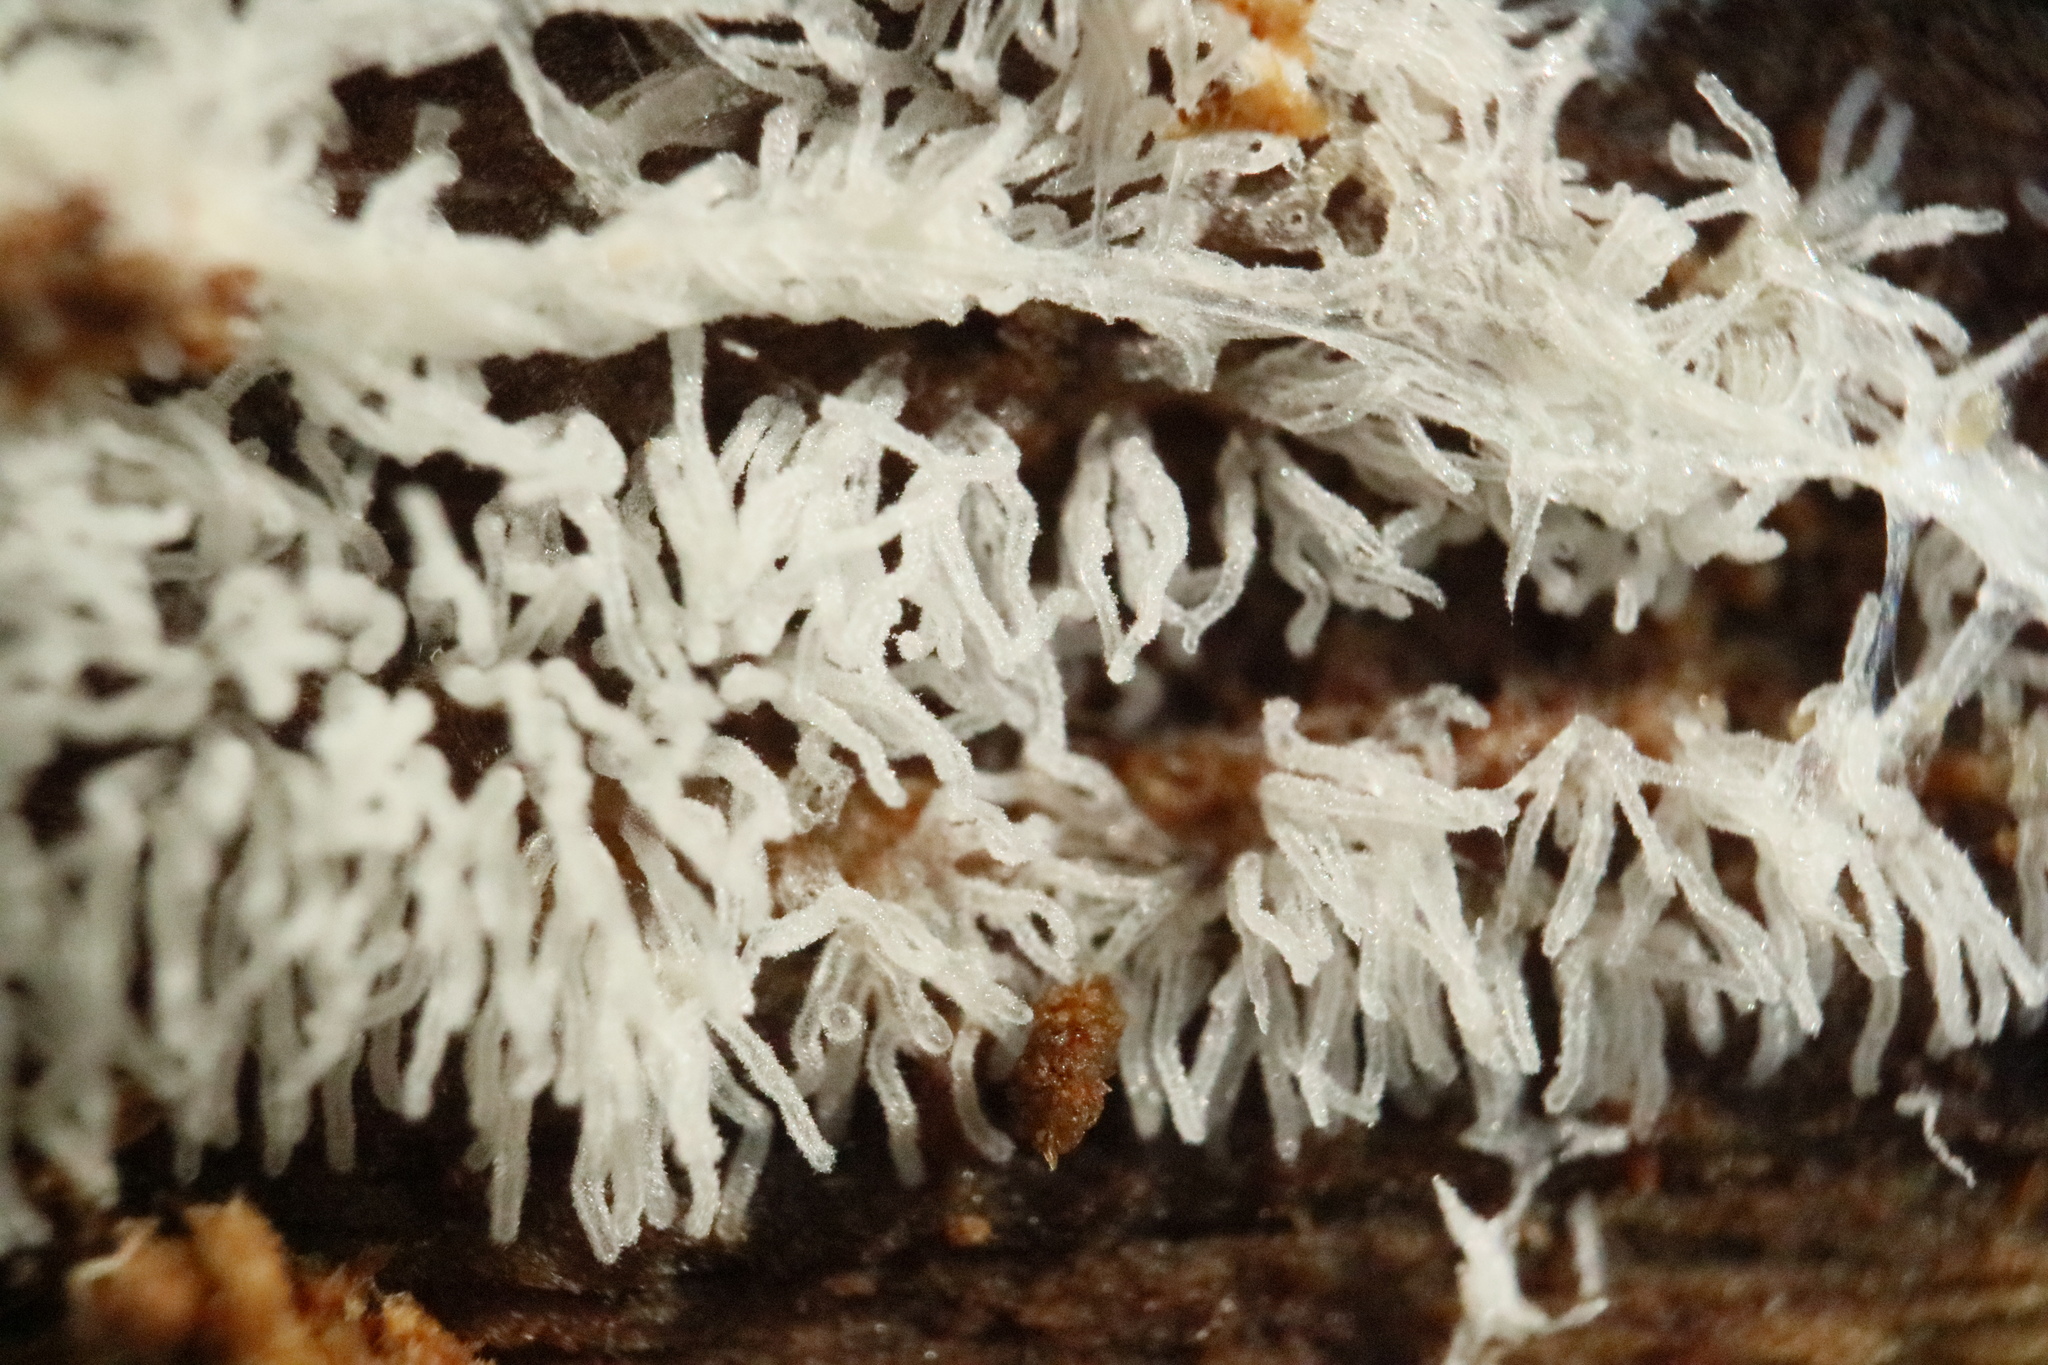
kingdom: Protozoa
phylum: Mycetozoa
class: Protosteliomycetes
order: Ceratiomyxales
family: Ceratiomyxaceae
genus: Ceratiomyxa
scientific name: Ceratiomyxa fruticulosa
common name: Honeycomb coral slime mold
